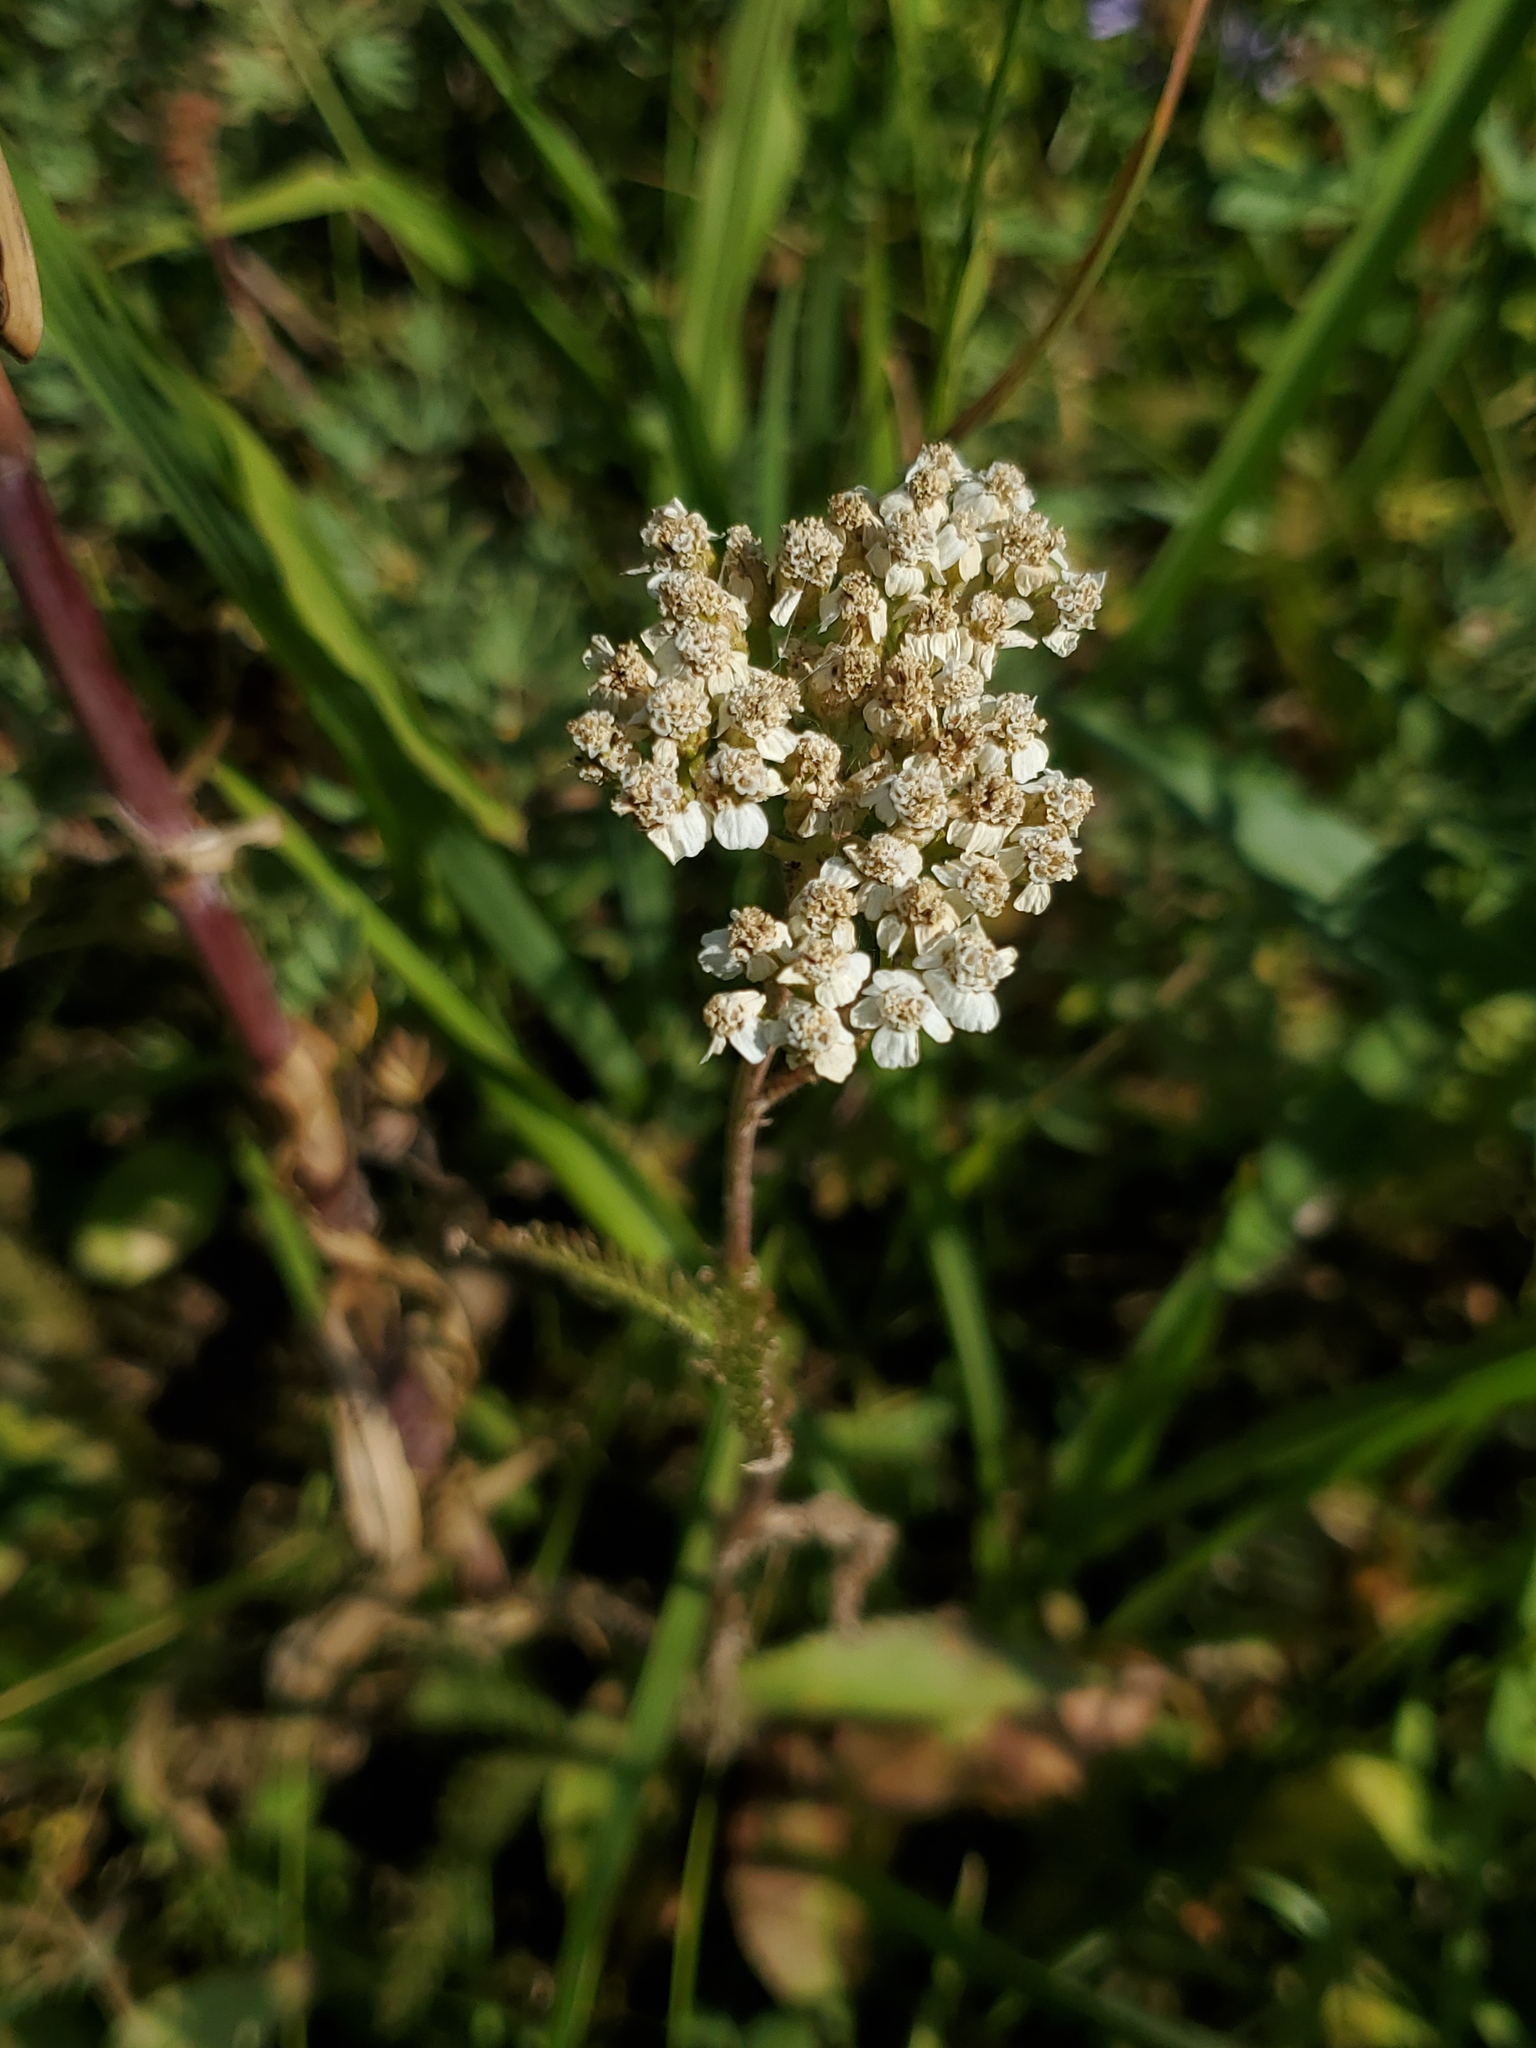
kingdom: Plantae
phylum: Tracheophyta
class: Magnoliopsida
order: Asterales
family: Asteraceae
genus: Achillea
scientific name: Achillea millefolium
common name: Yarrow
